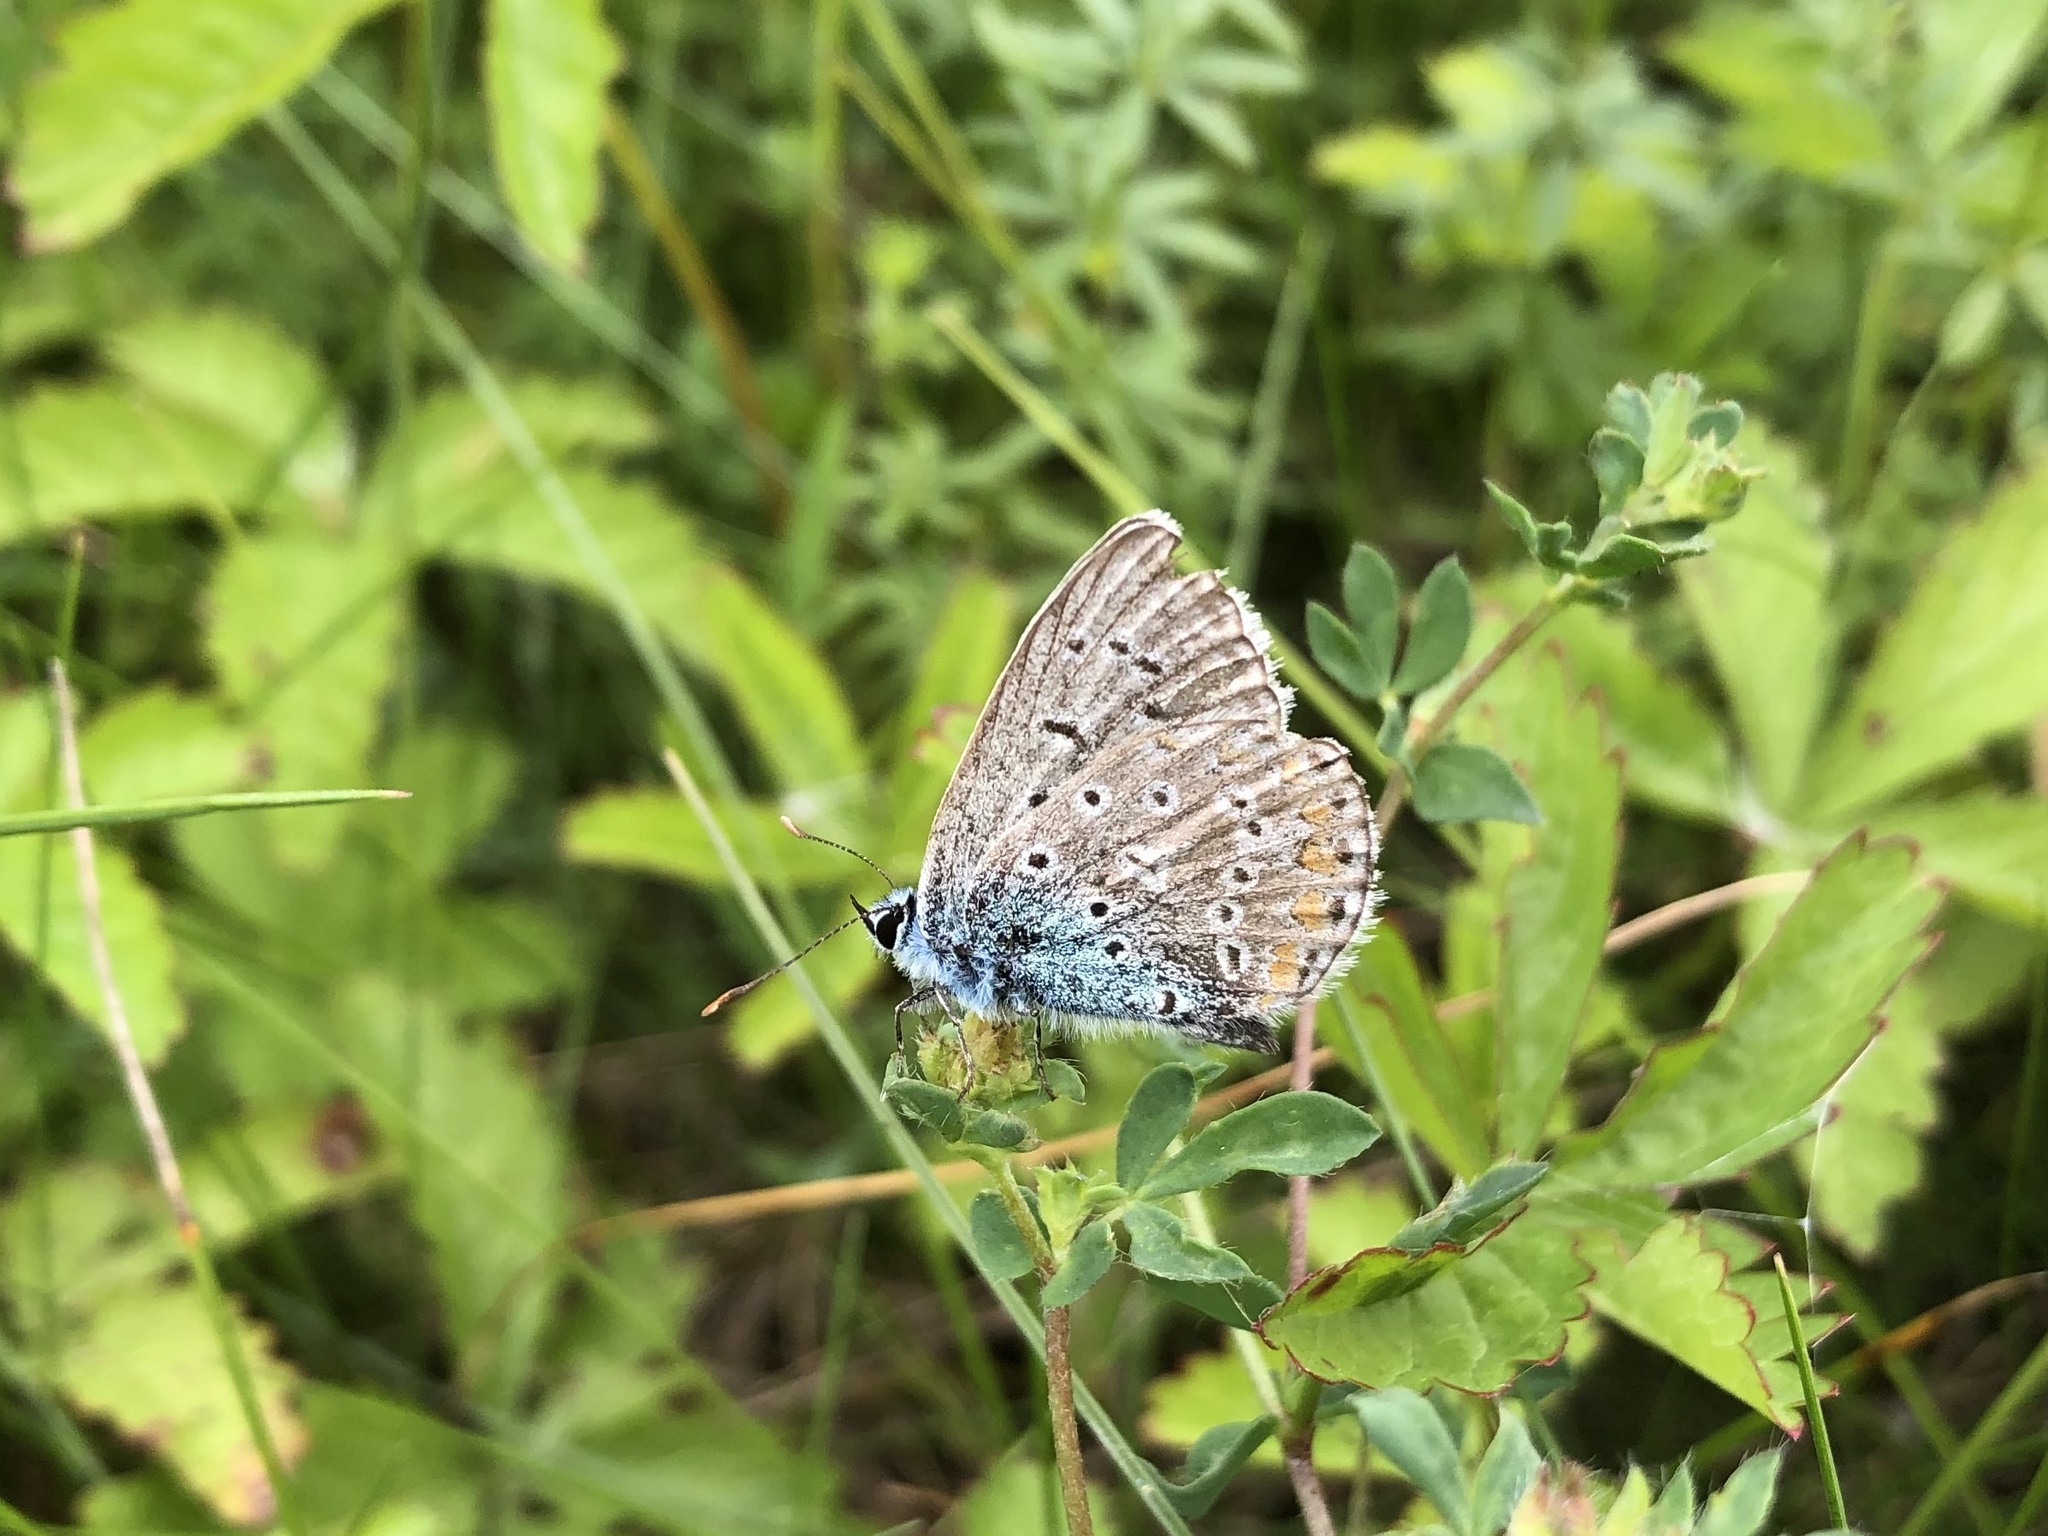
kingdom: Animalia
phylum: Arthropoda
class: Insecta
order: Lepidoptera
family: Lycaenidae
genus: Polyommatus
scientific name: Polyommatus icarus
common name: Common blue
